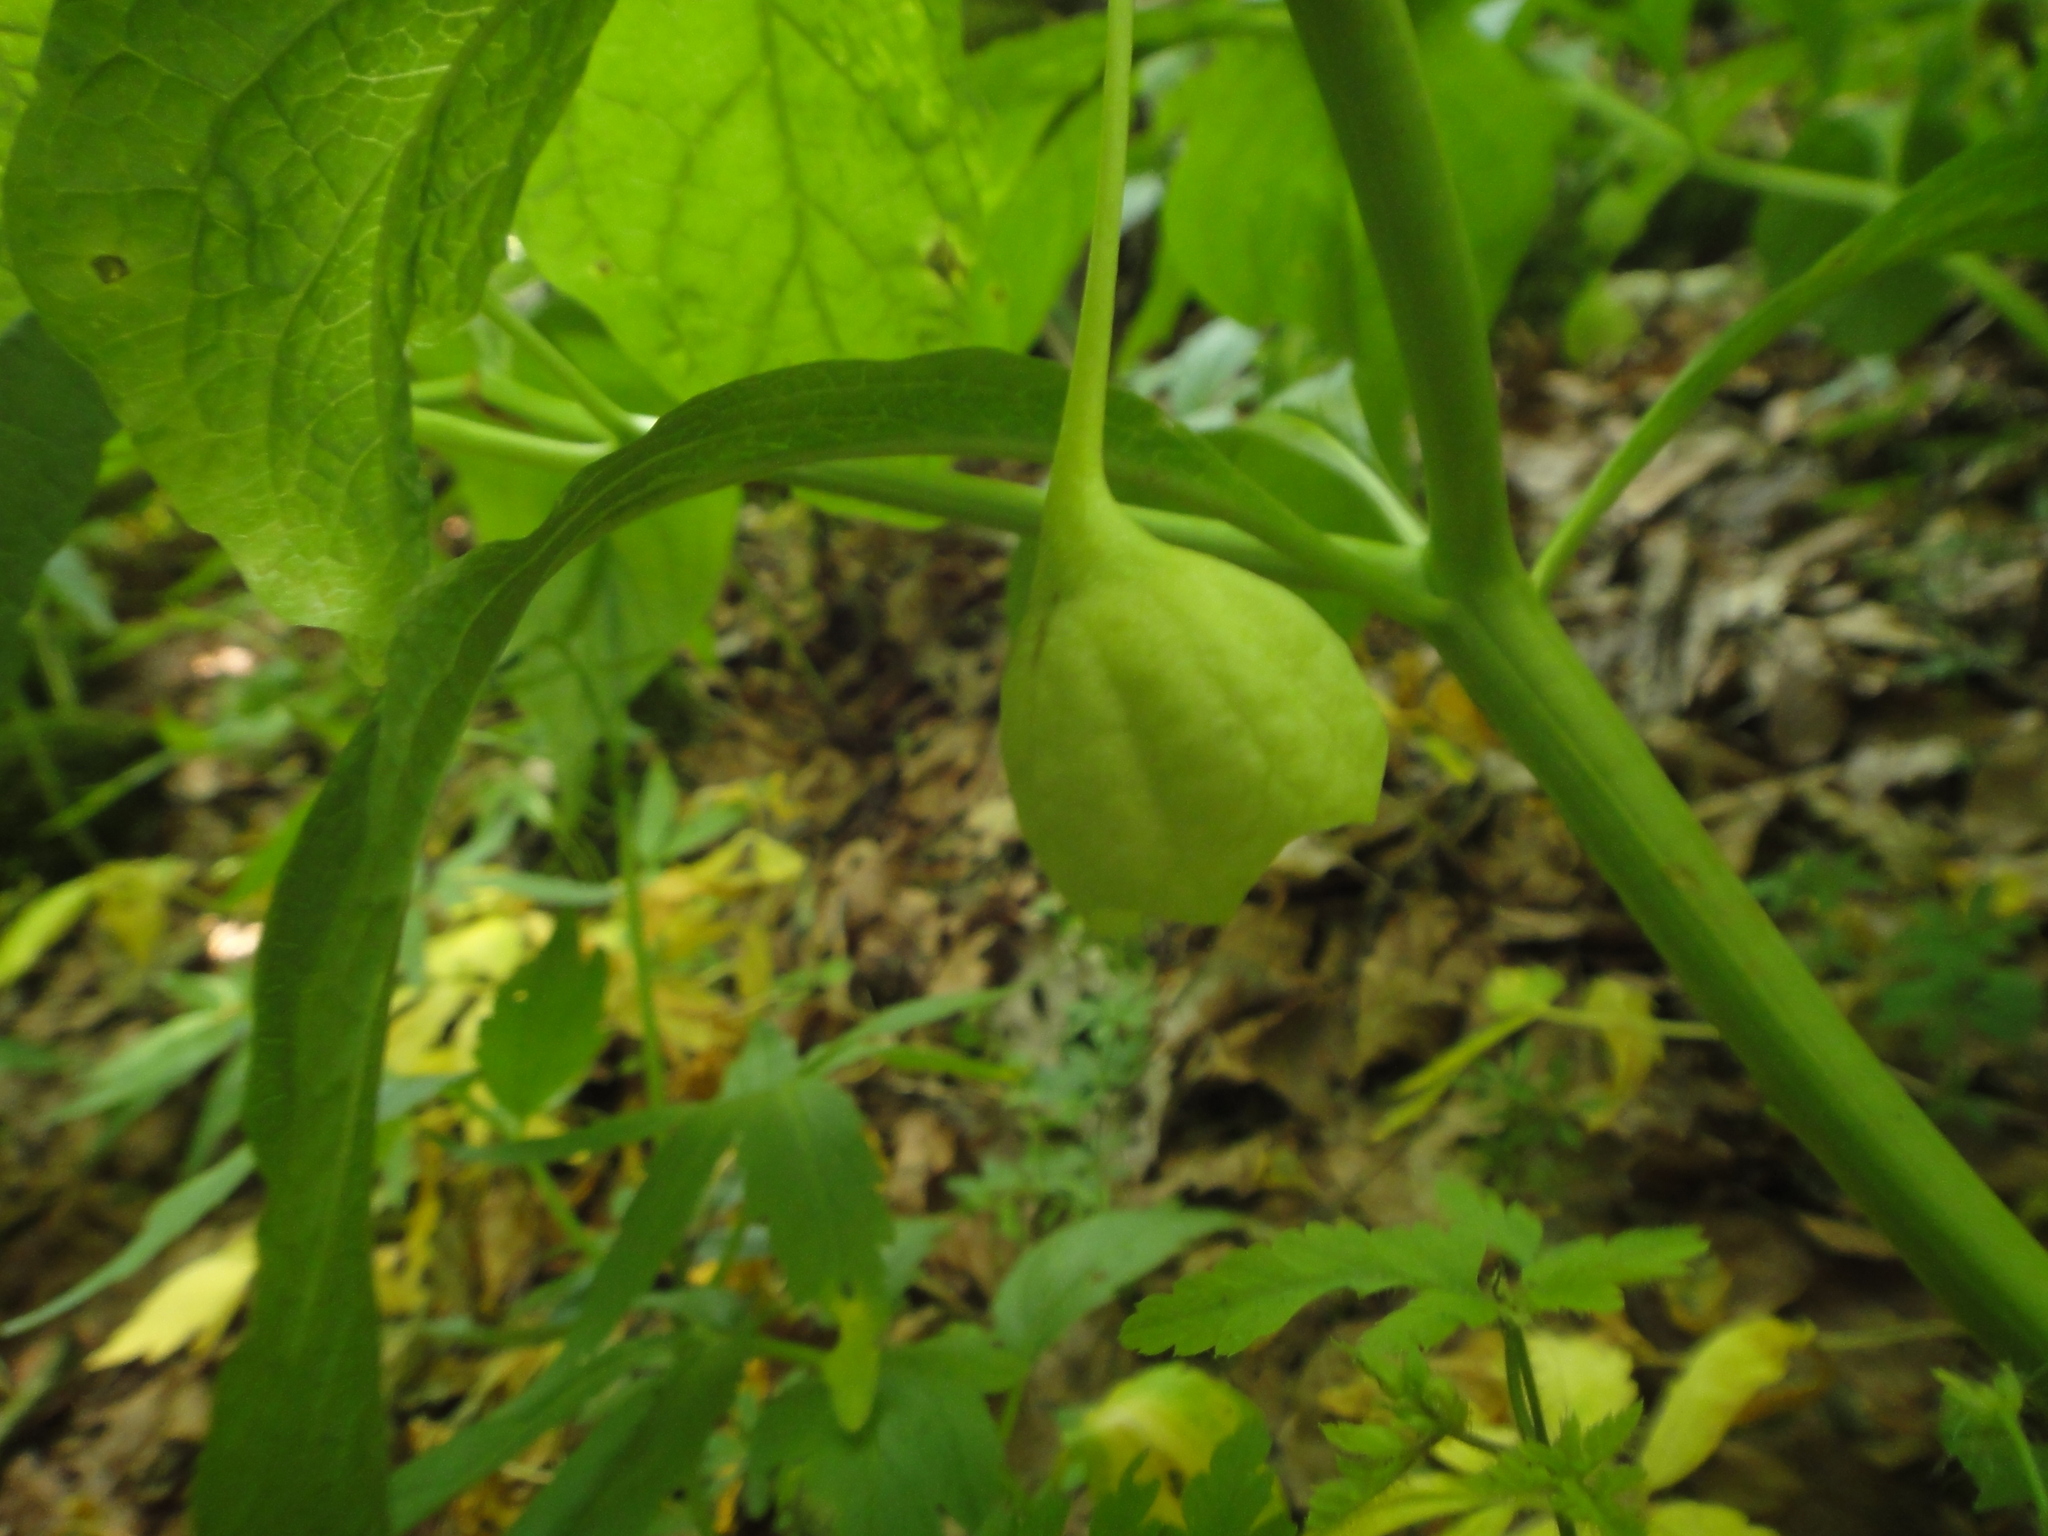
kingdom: Plantae
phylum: Tracheophyta
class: Magnoliopsida
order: Solanales
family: Solanaceae
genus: Scopolia
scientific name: Scopolia carniolica
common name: Scopolia
